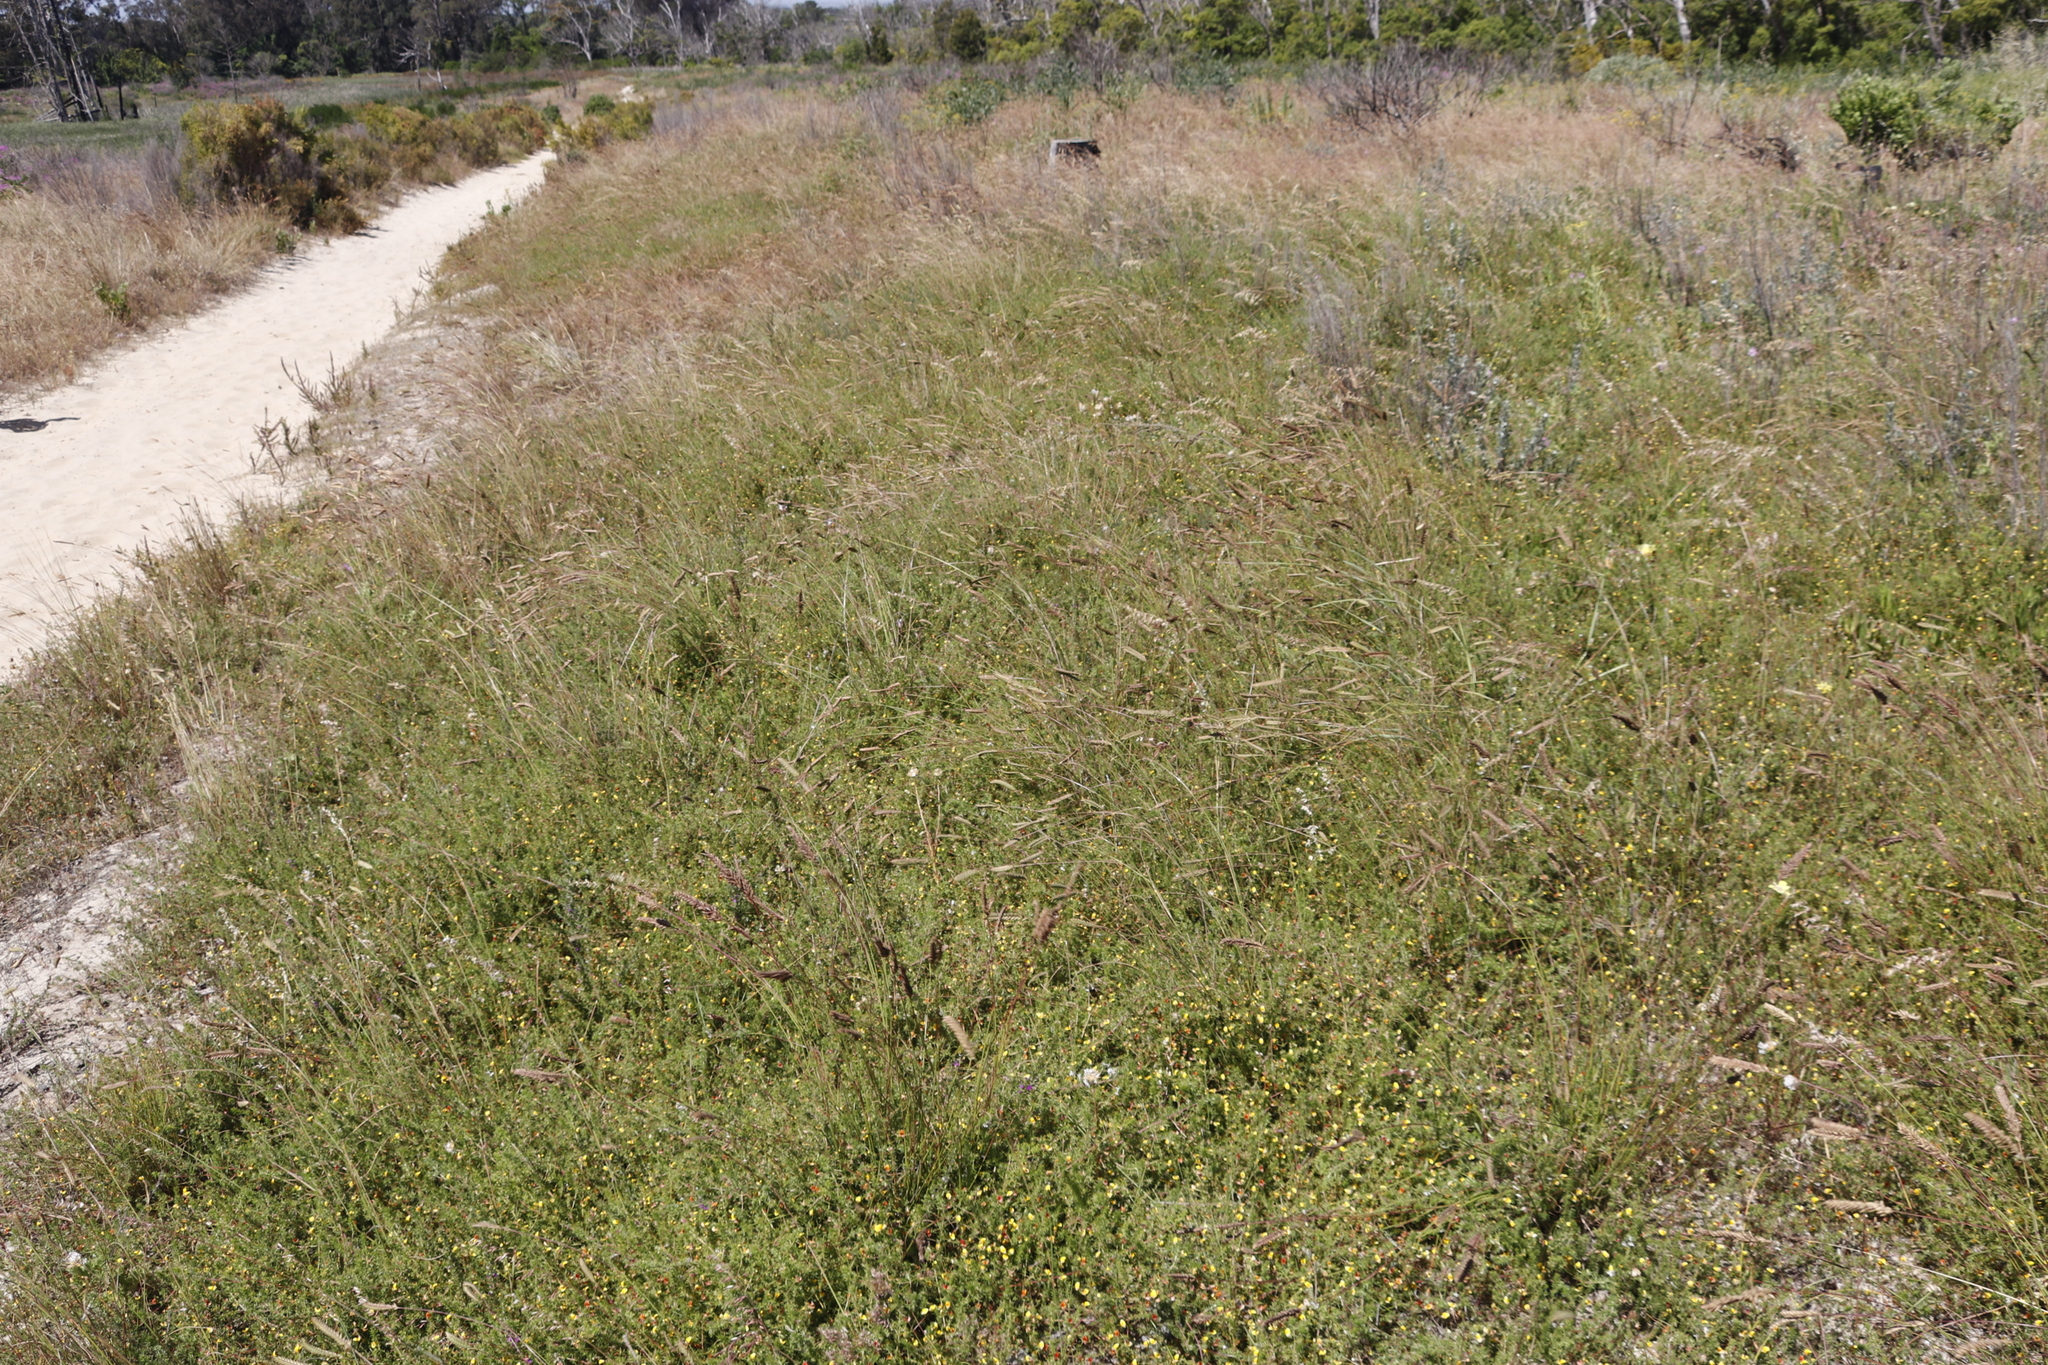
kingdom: Plantae
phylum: Tracheophyta
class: Liliopsida
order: Poales
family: Poaceae
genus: Tribolium
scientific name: Tribolium uniolae
